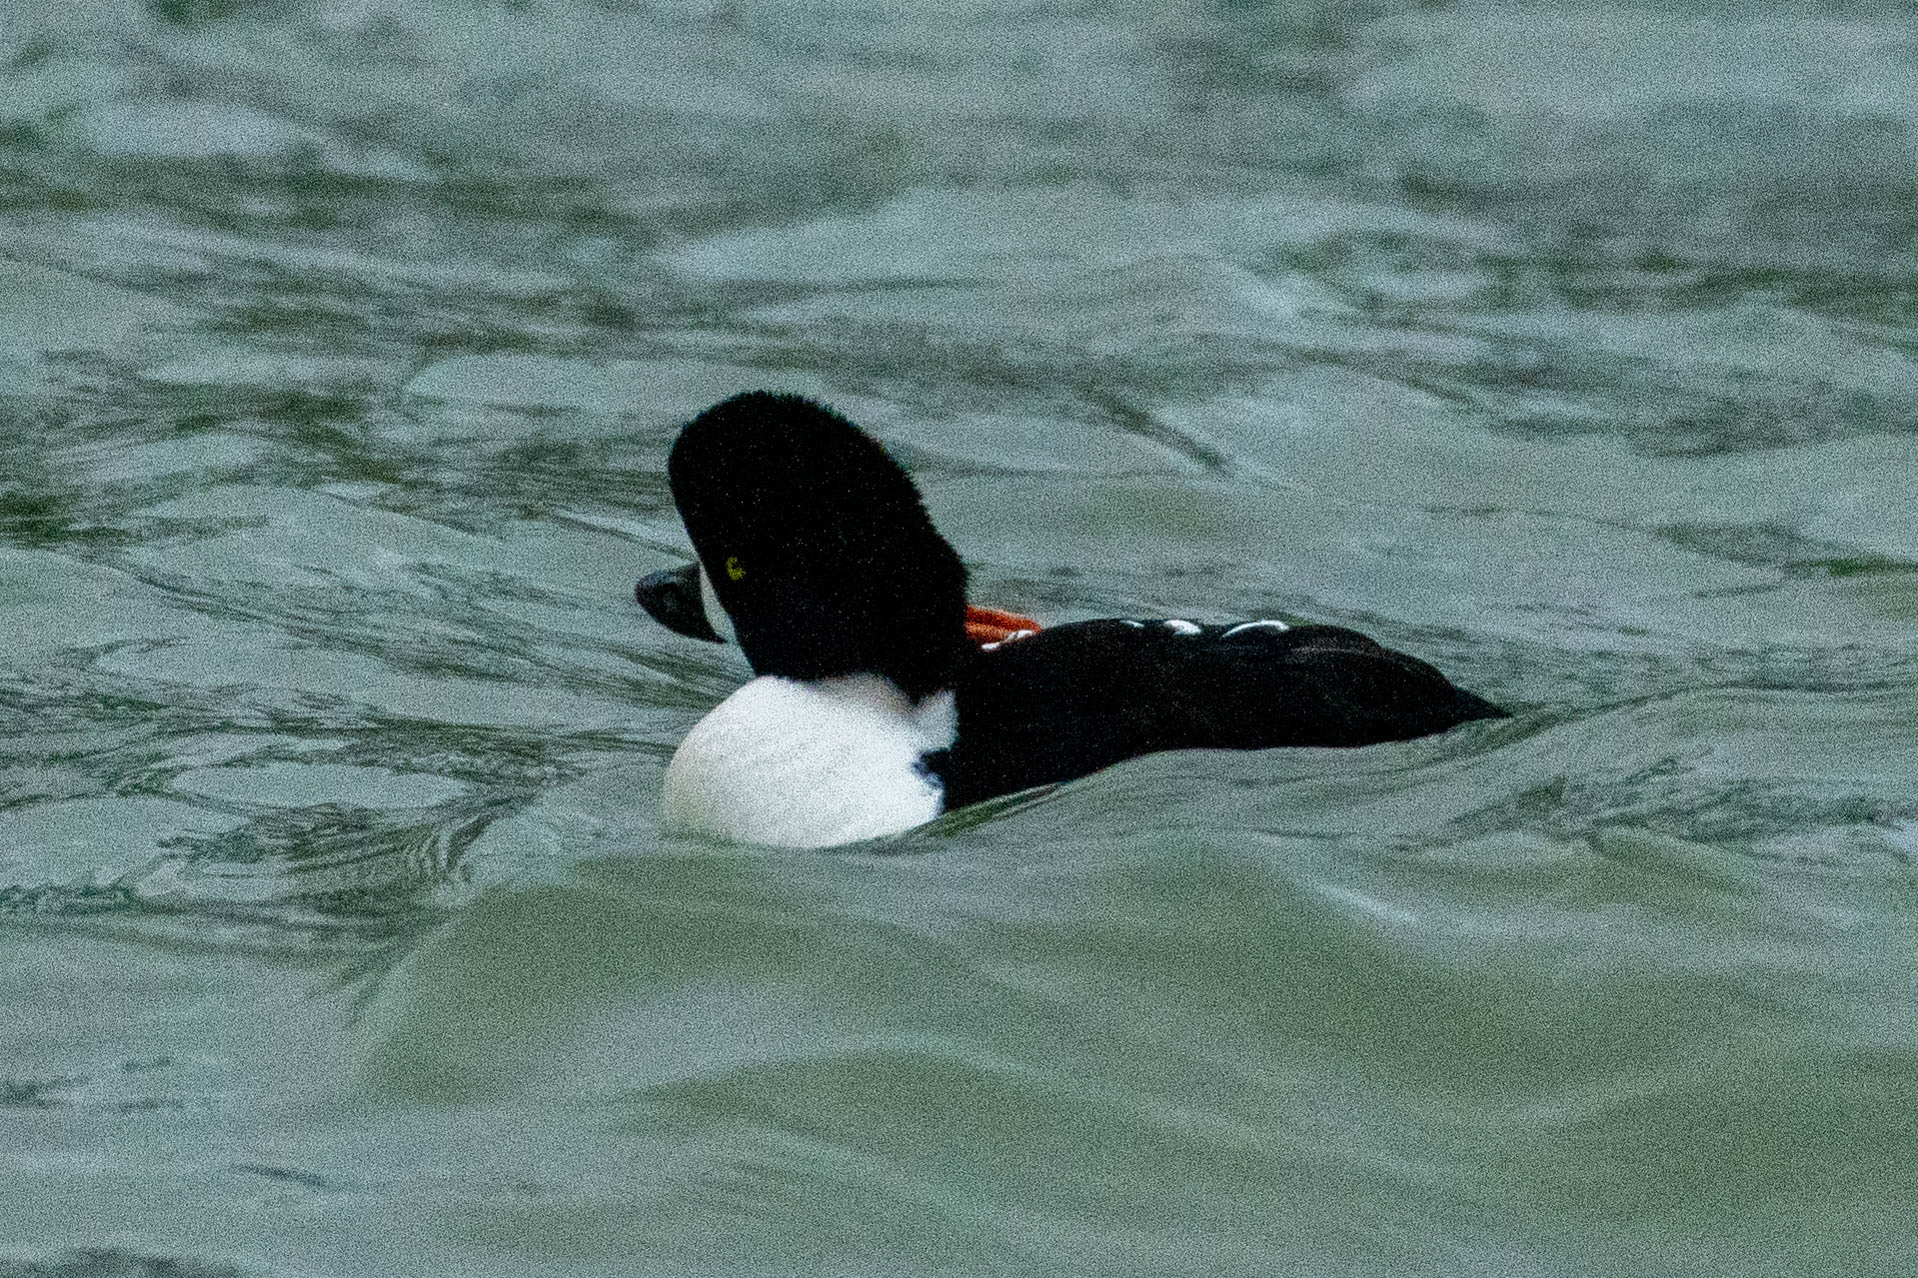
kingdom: Animalia
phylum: Chordata
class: Aves
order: Anseriformes
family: Anatidae
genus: Bucephala
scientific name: Bucephala islandica
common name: Barrow's goldeneye
